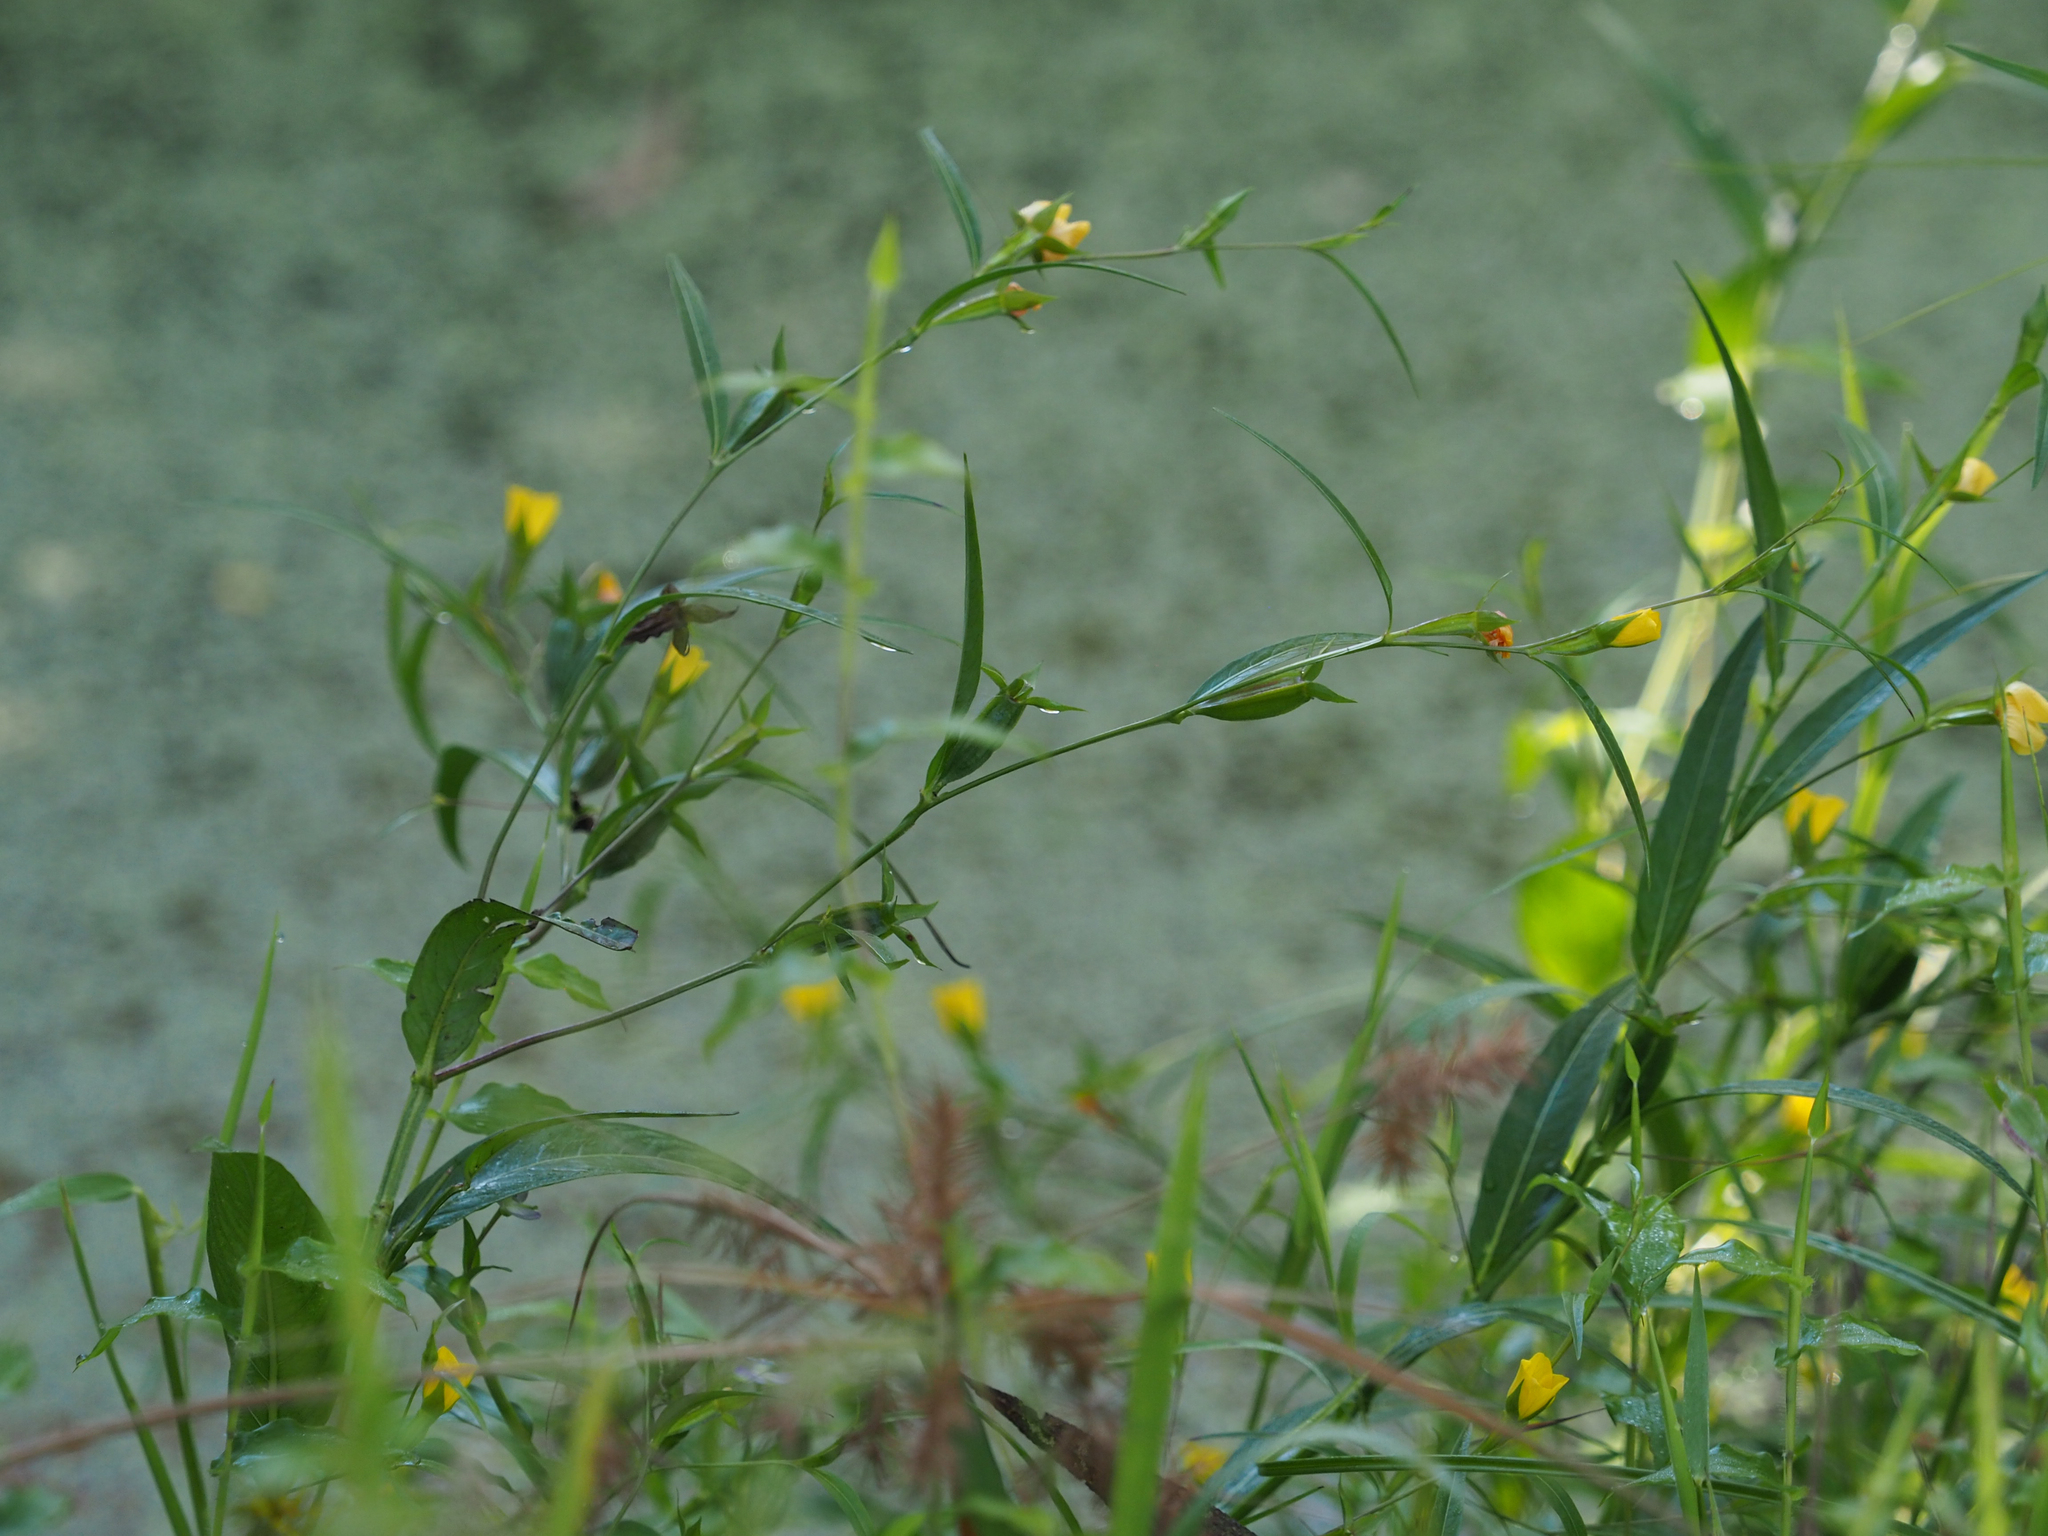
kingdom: Plantae
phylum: Tracheophyta
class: Magnoliopsida
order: Myrtales
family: Onagraceae
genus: Ludwigia
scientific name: Ludwigia decurrens
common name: Winged water-primrose
